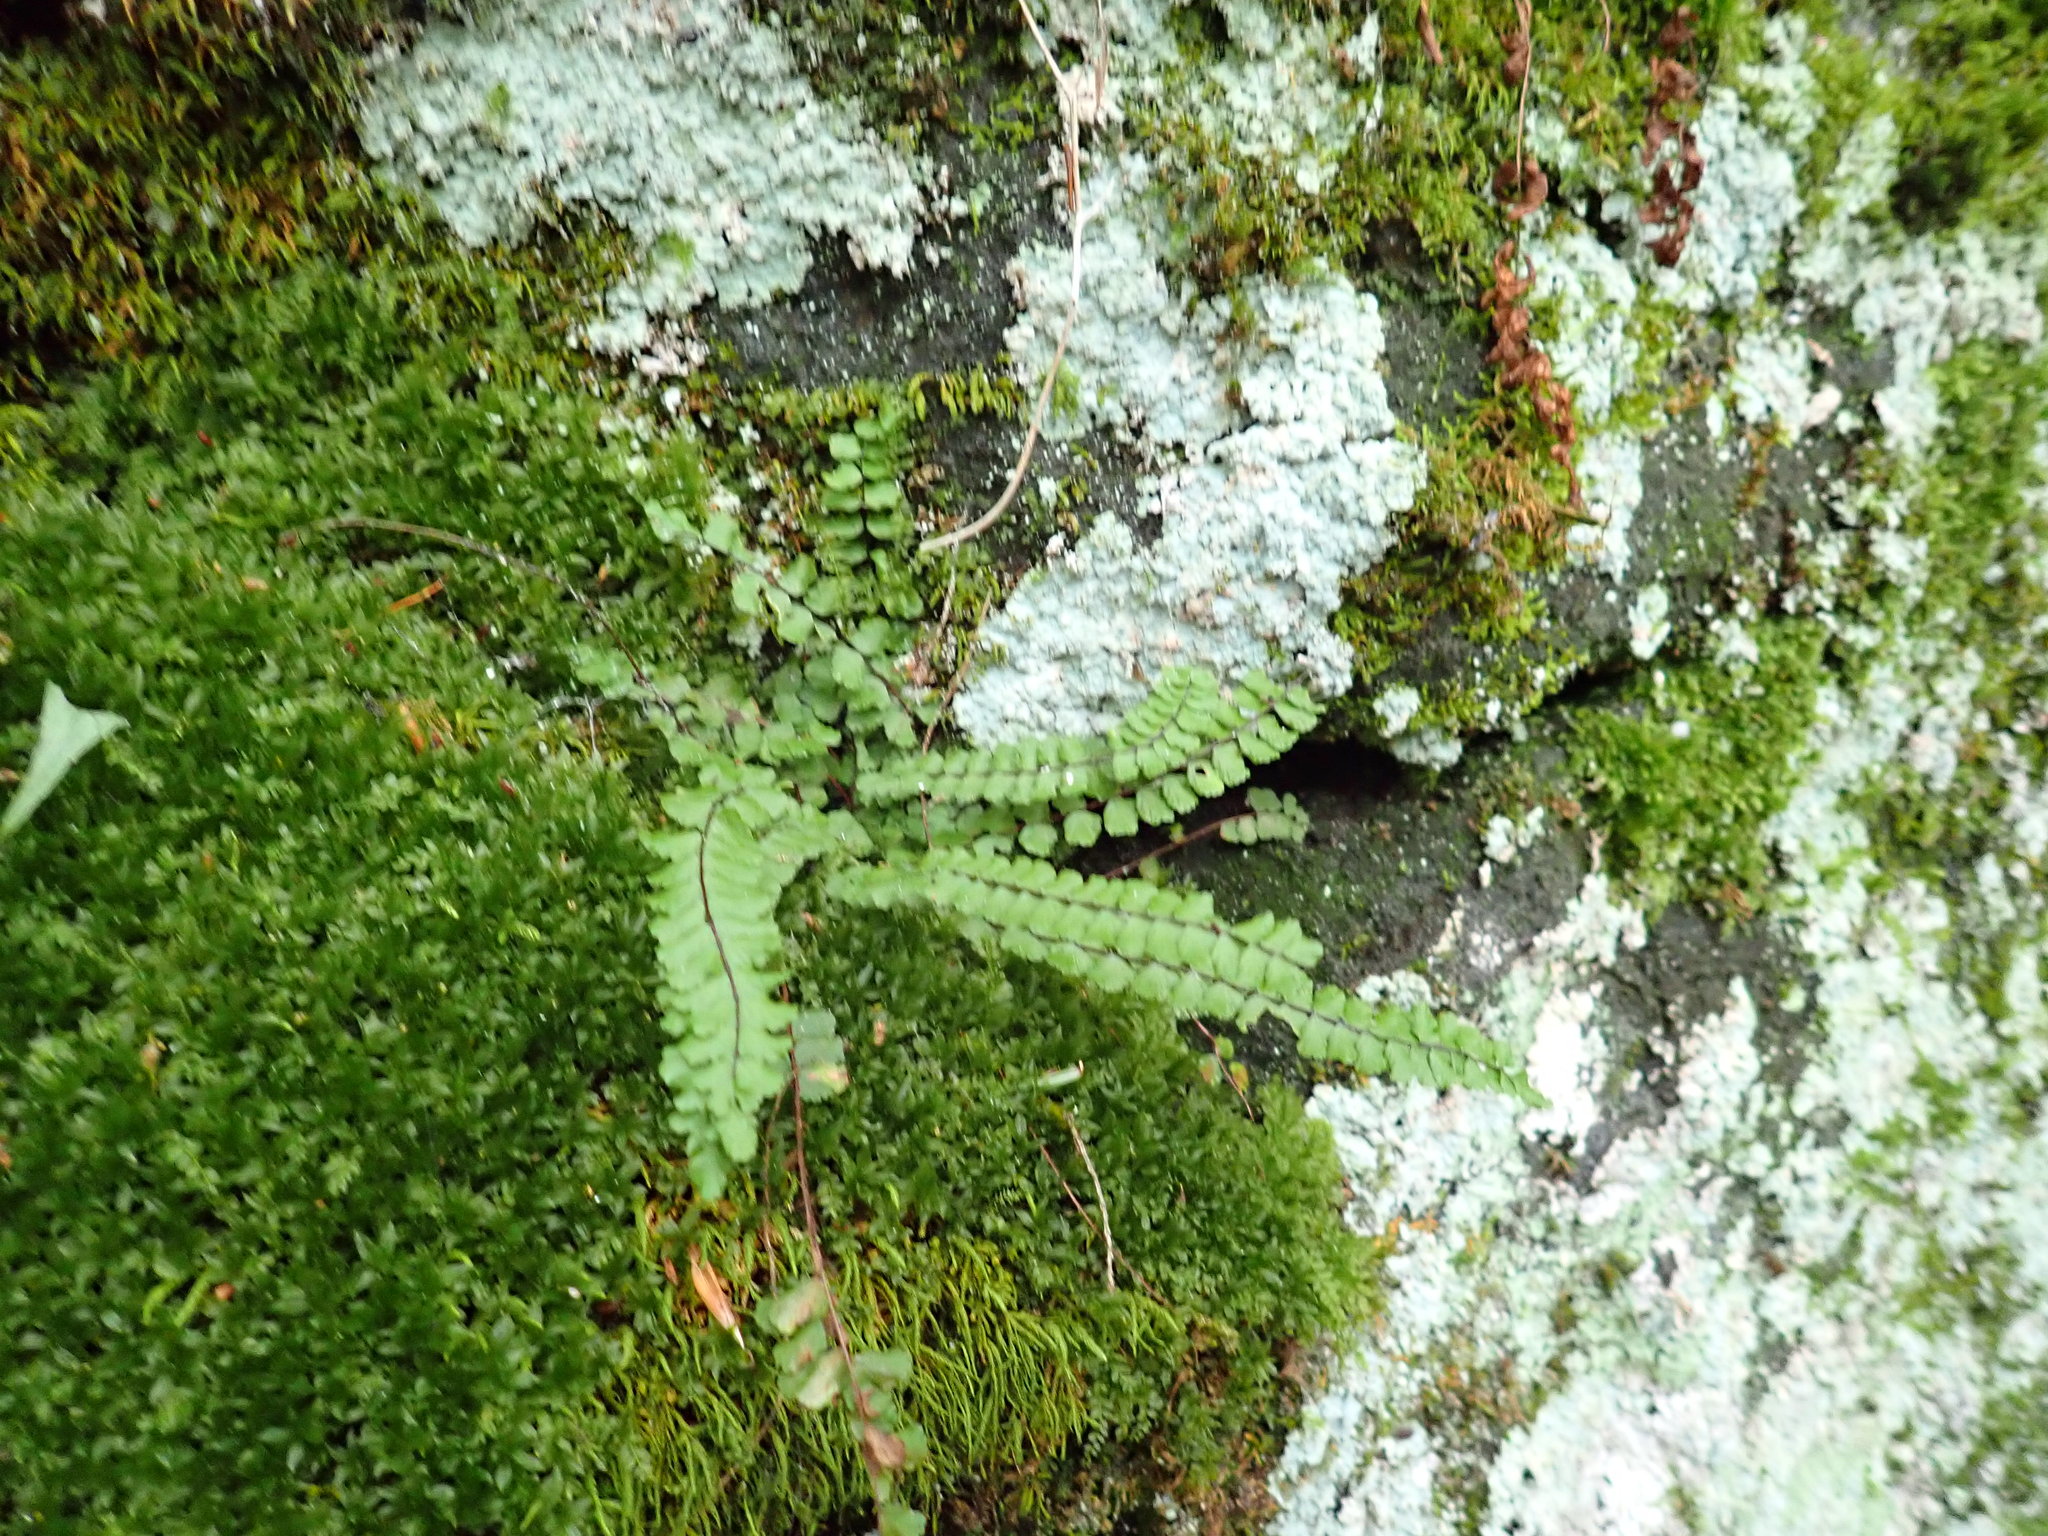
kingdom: Plantae
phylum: Tracheophyta
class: Polypodiopsida
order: Polypodiales
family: Aspleniaceae
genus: Asplenium
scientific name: Asplenium trichomanes
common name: Maidenhair spleenwort
